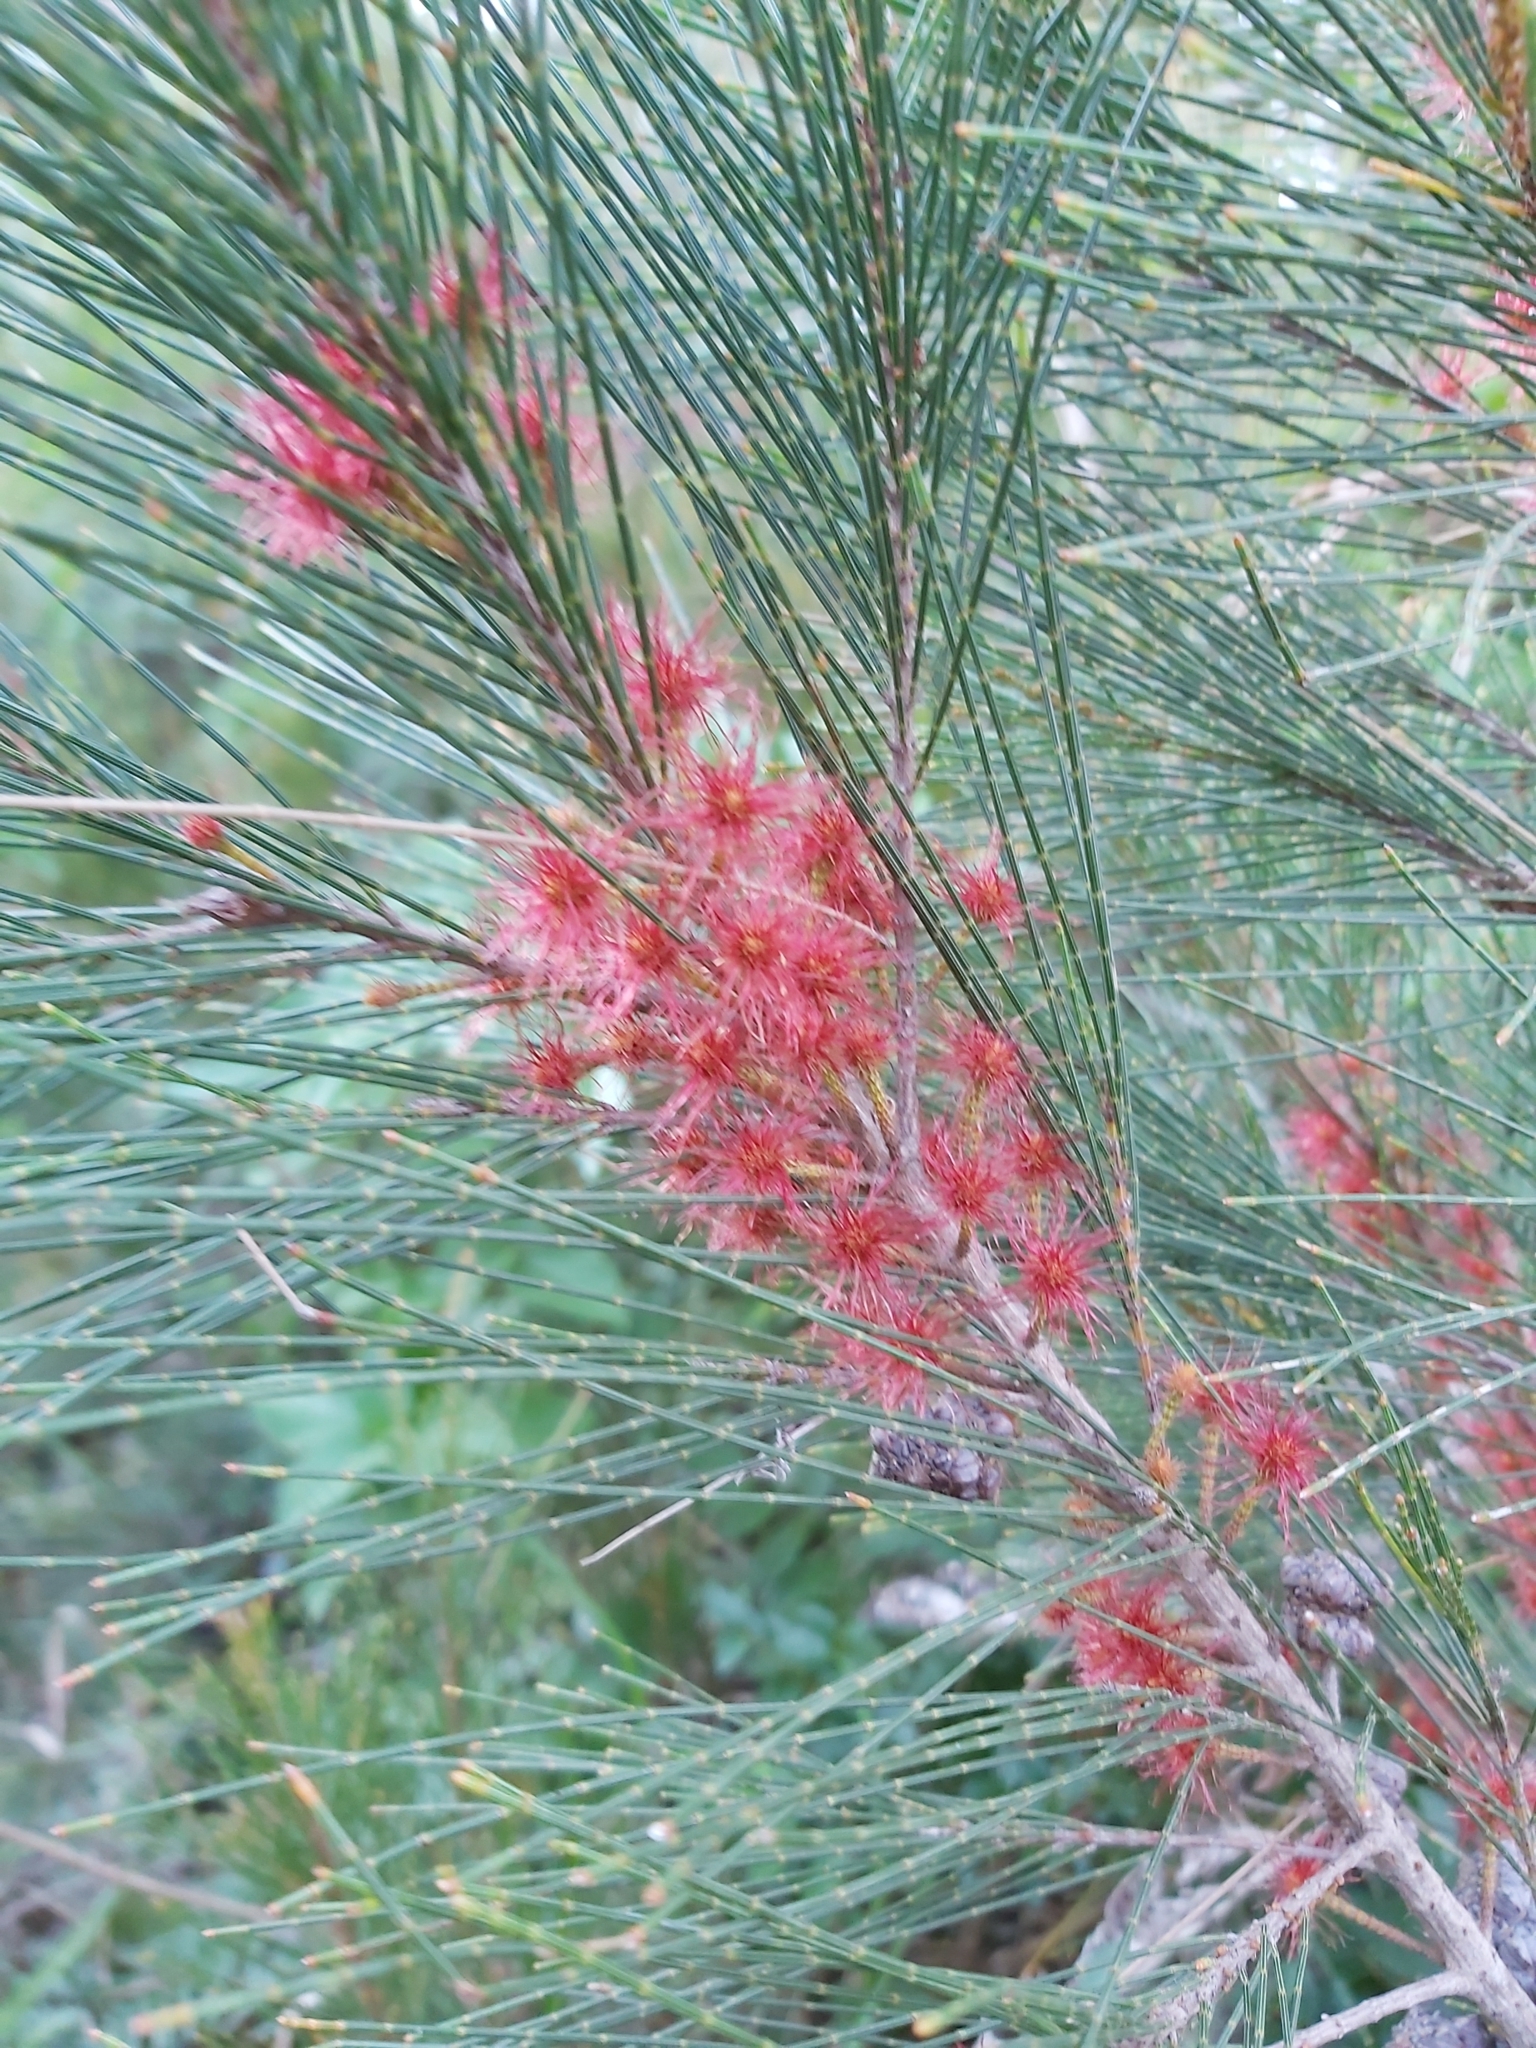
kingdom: Plantae
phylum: Tracheophyta
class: Magnoliopsida
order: Fagales
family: Casuarinaceae
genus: Allocasuarina
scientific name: Allocasuarina littoralis
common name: Black she-oak
